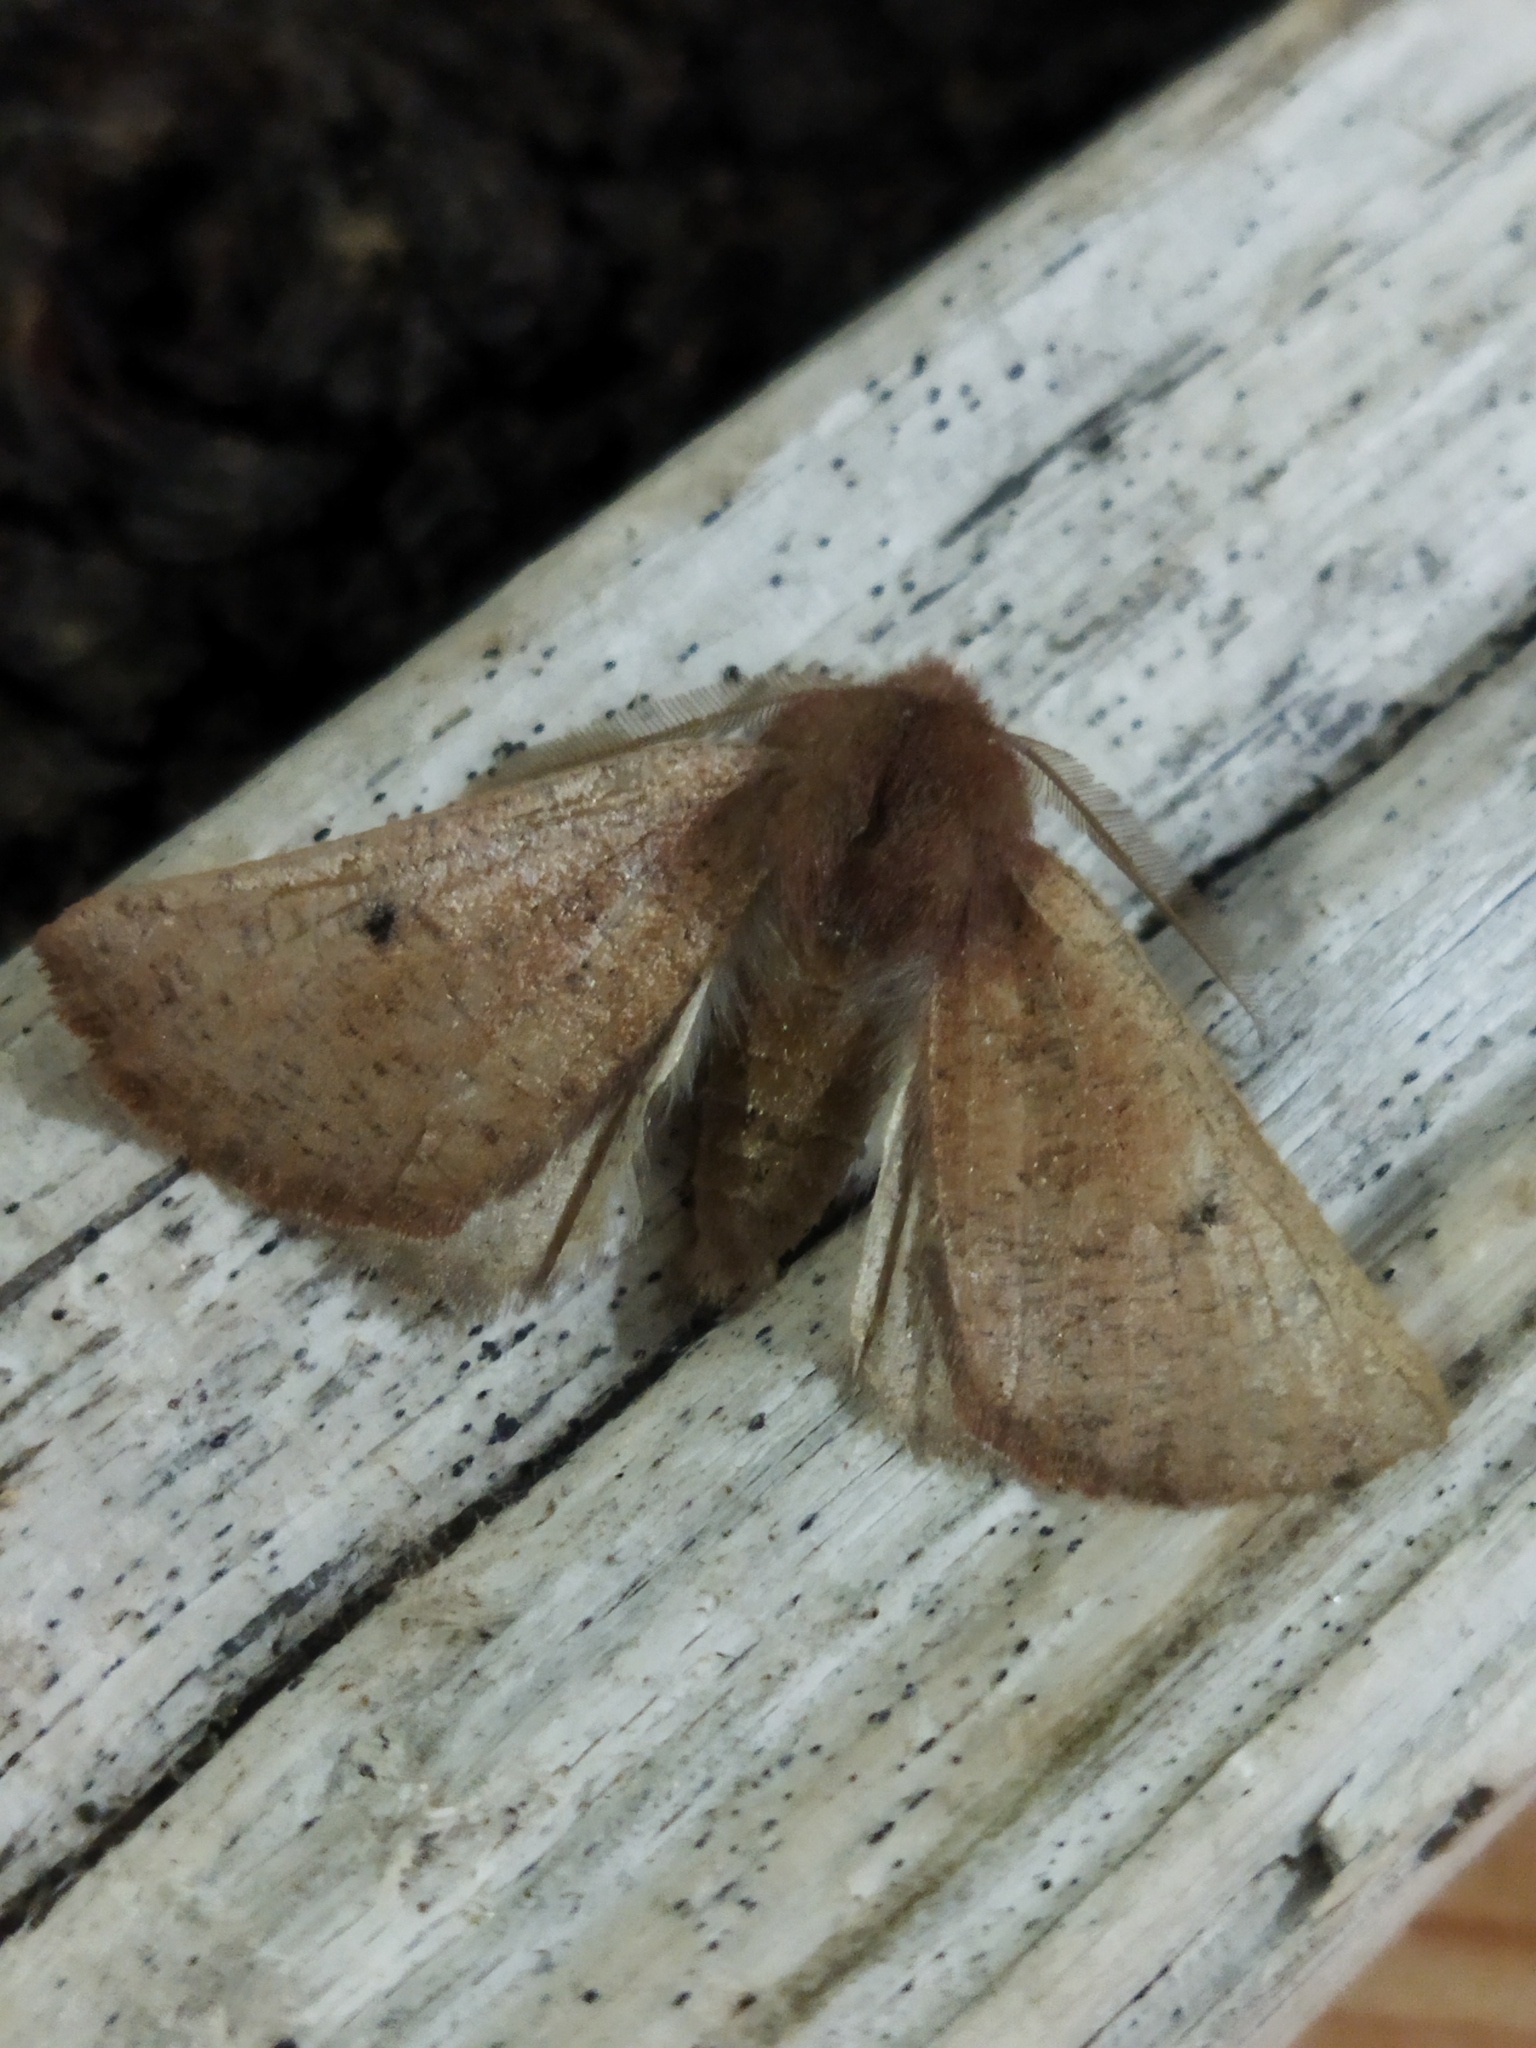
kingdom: Animalia
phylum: Arthropoda
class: Insecta
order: Lepidoptera
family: Geometridae
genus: Dasycorsa
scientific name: Dasycorsa modesta
